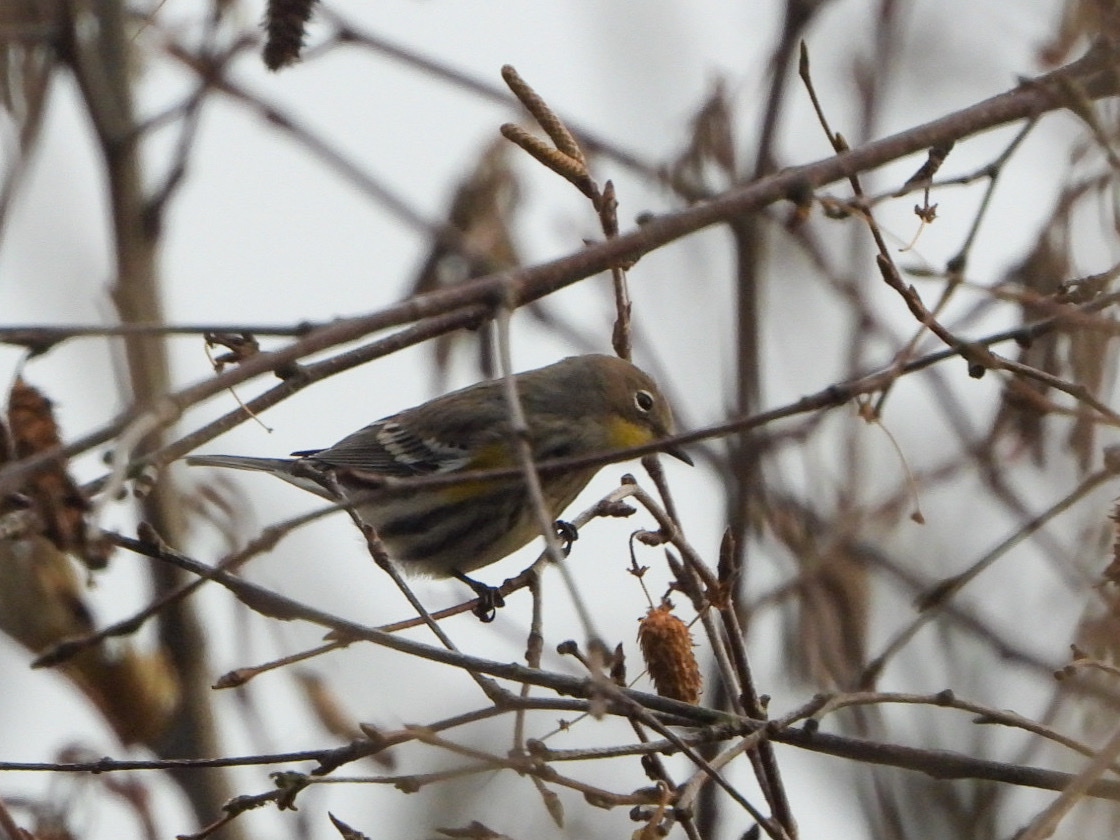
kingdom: Animalia
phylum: Chordata
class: Aves
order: Passeriformes
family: Parulidae
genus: Setophaga
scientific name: Setophaga coronata
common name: Myrtle warbler
